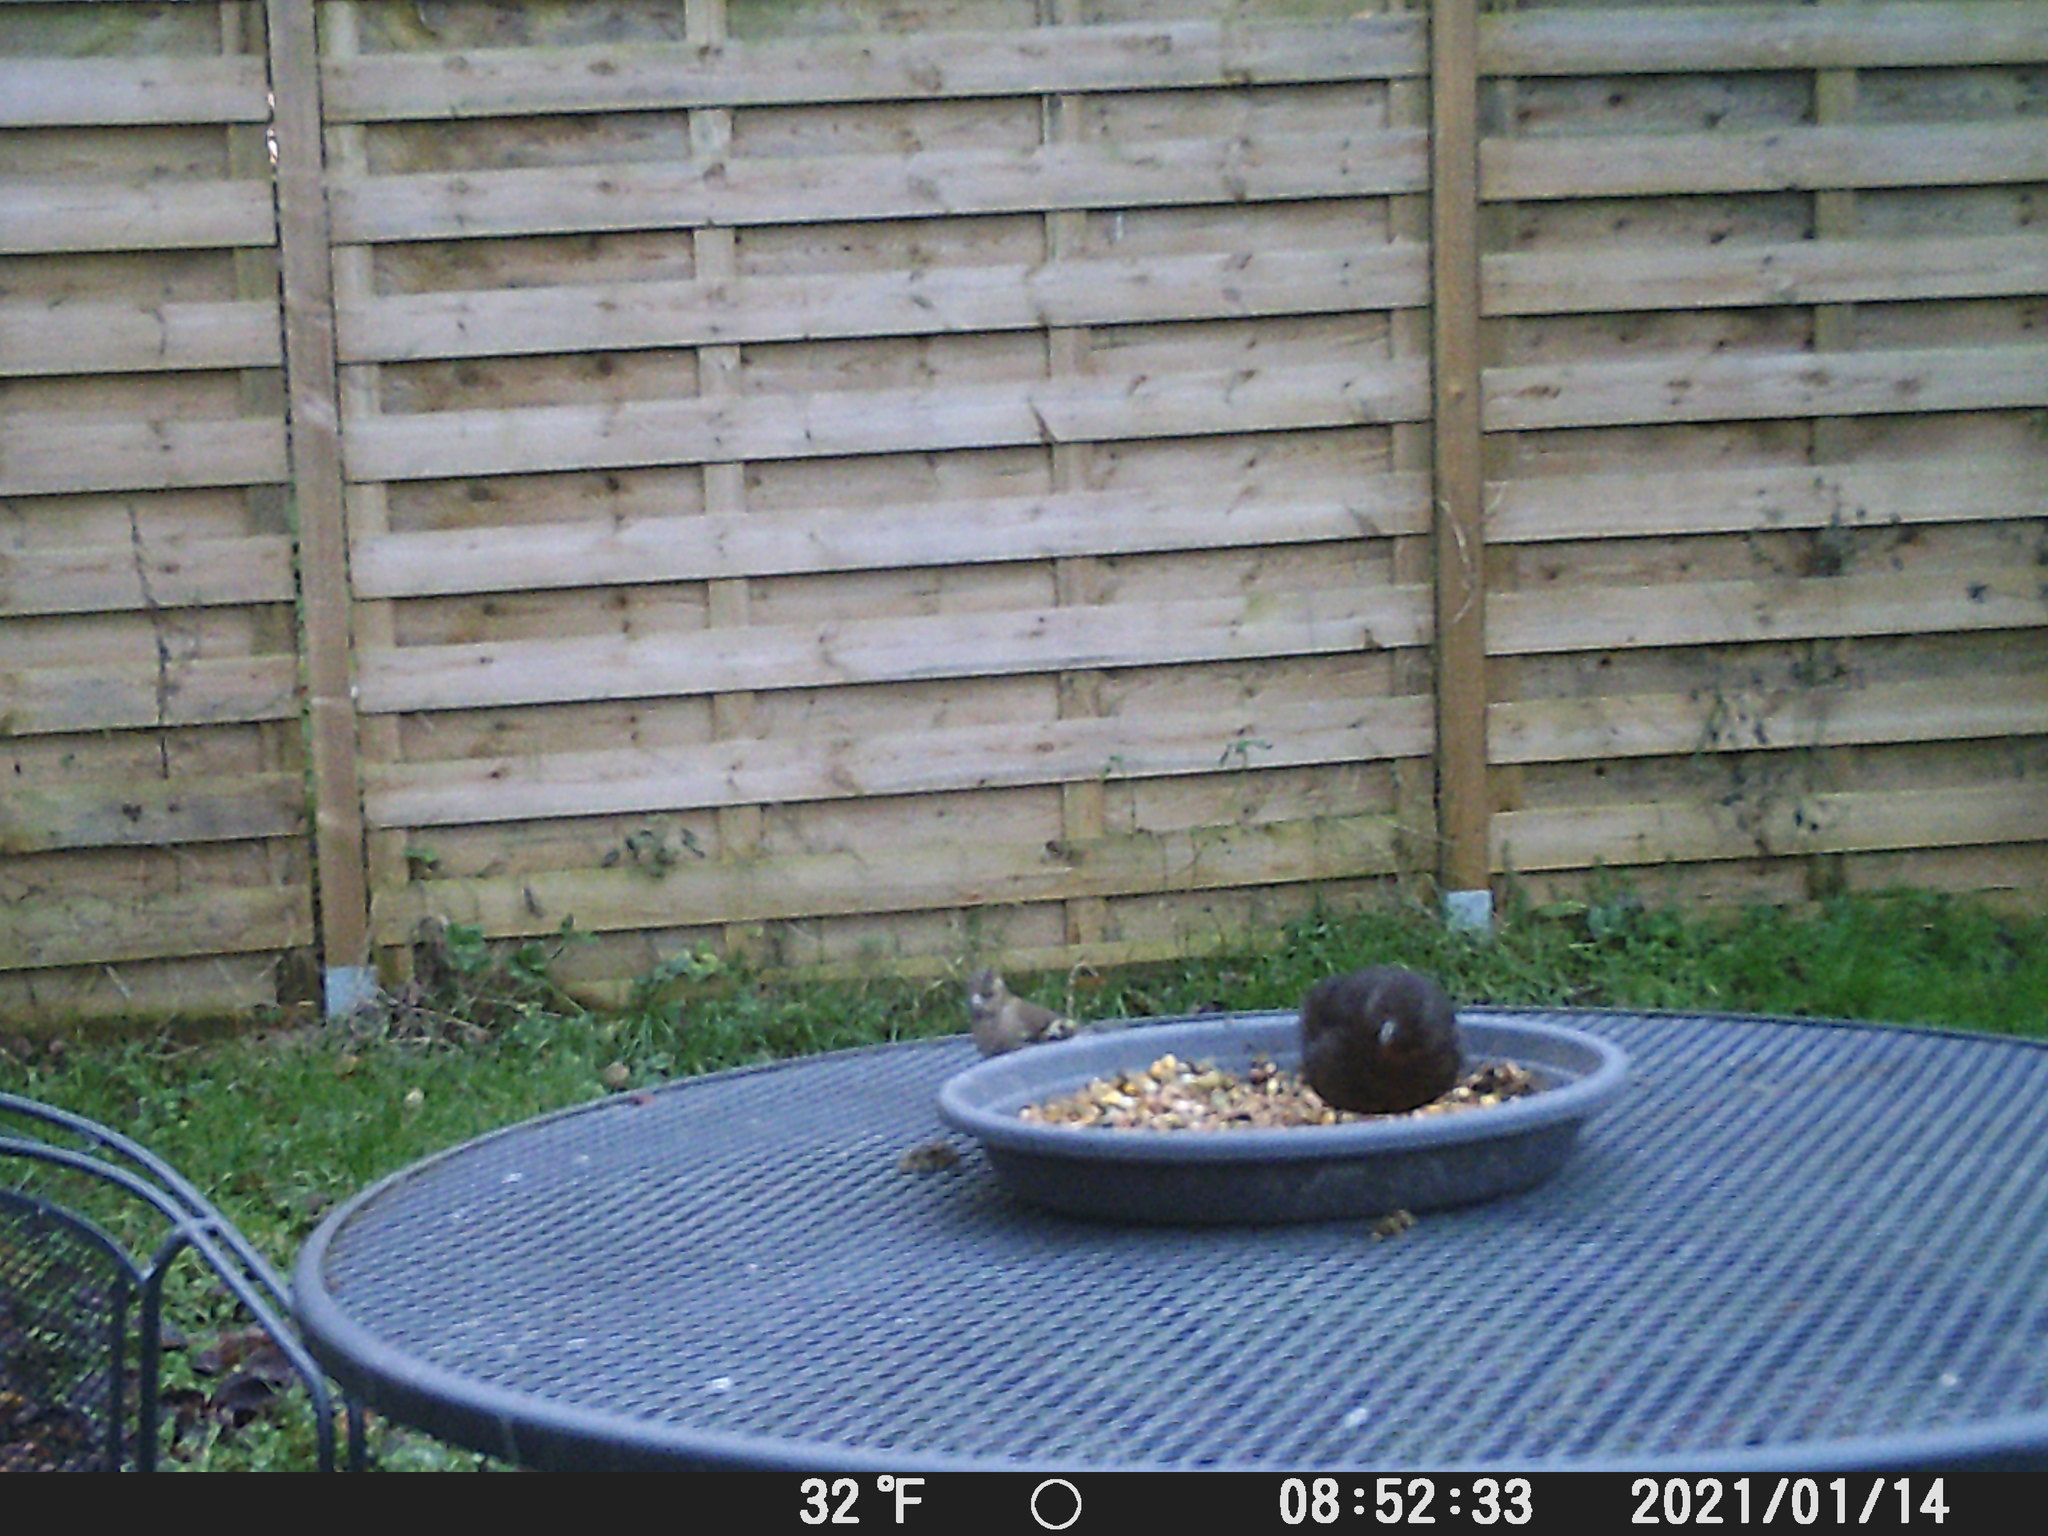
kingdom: Animalia
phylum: Chordata
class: Aves
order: Passeriformes
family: Fringillidae
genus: Fringilla
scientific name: Fringilla coelebs
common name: Common chaffinch
